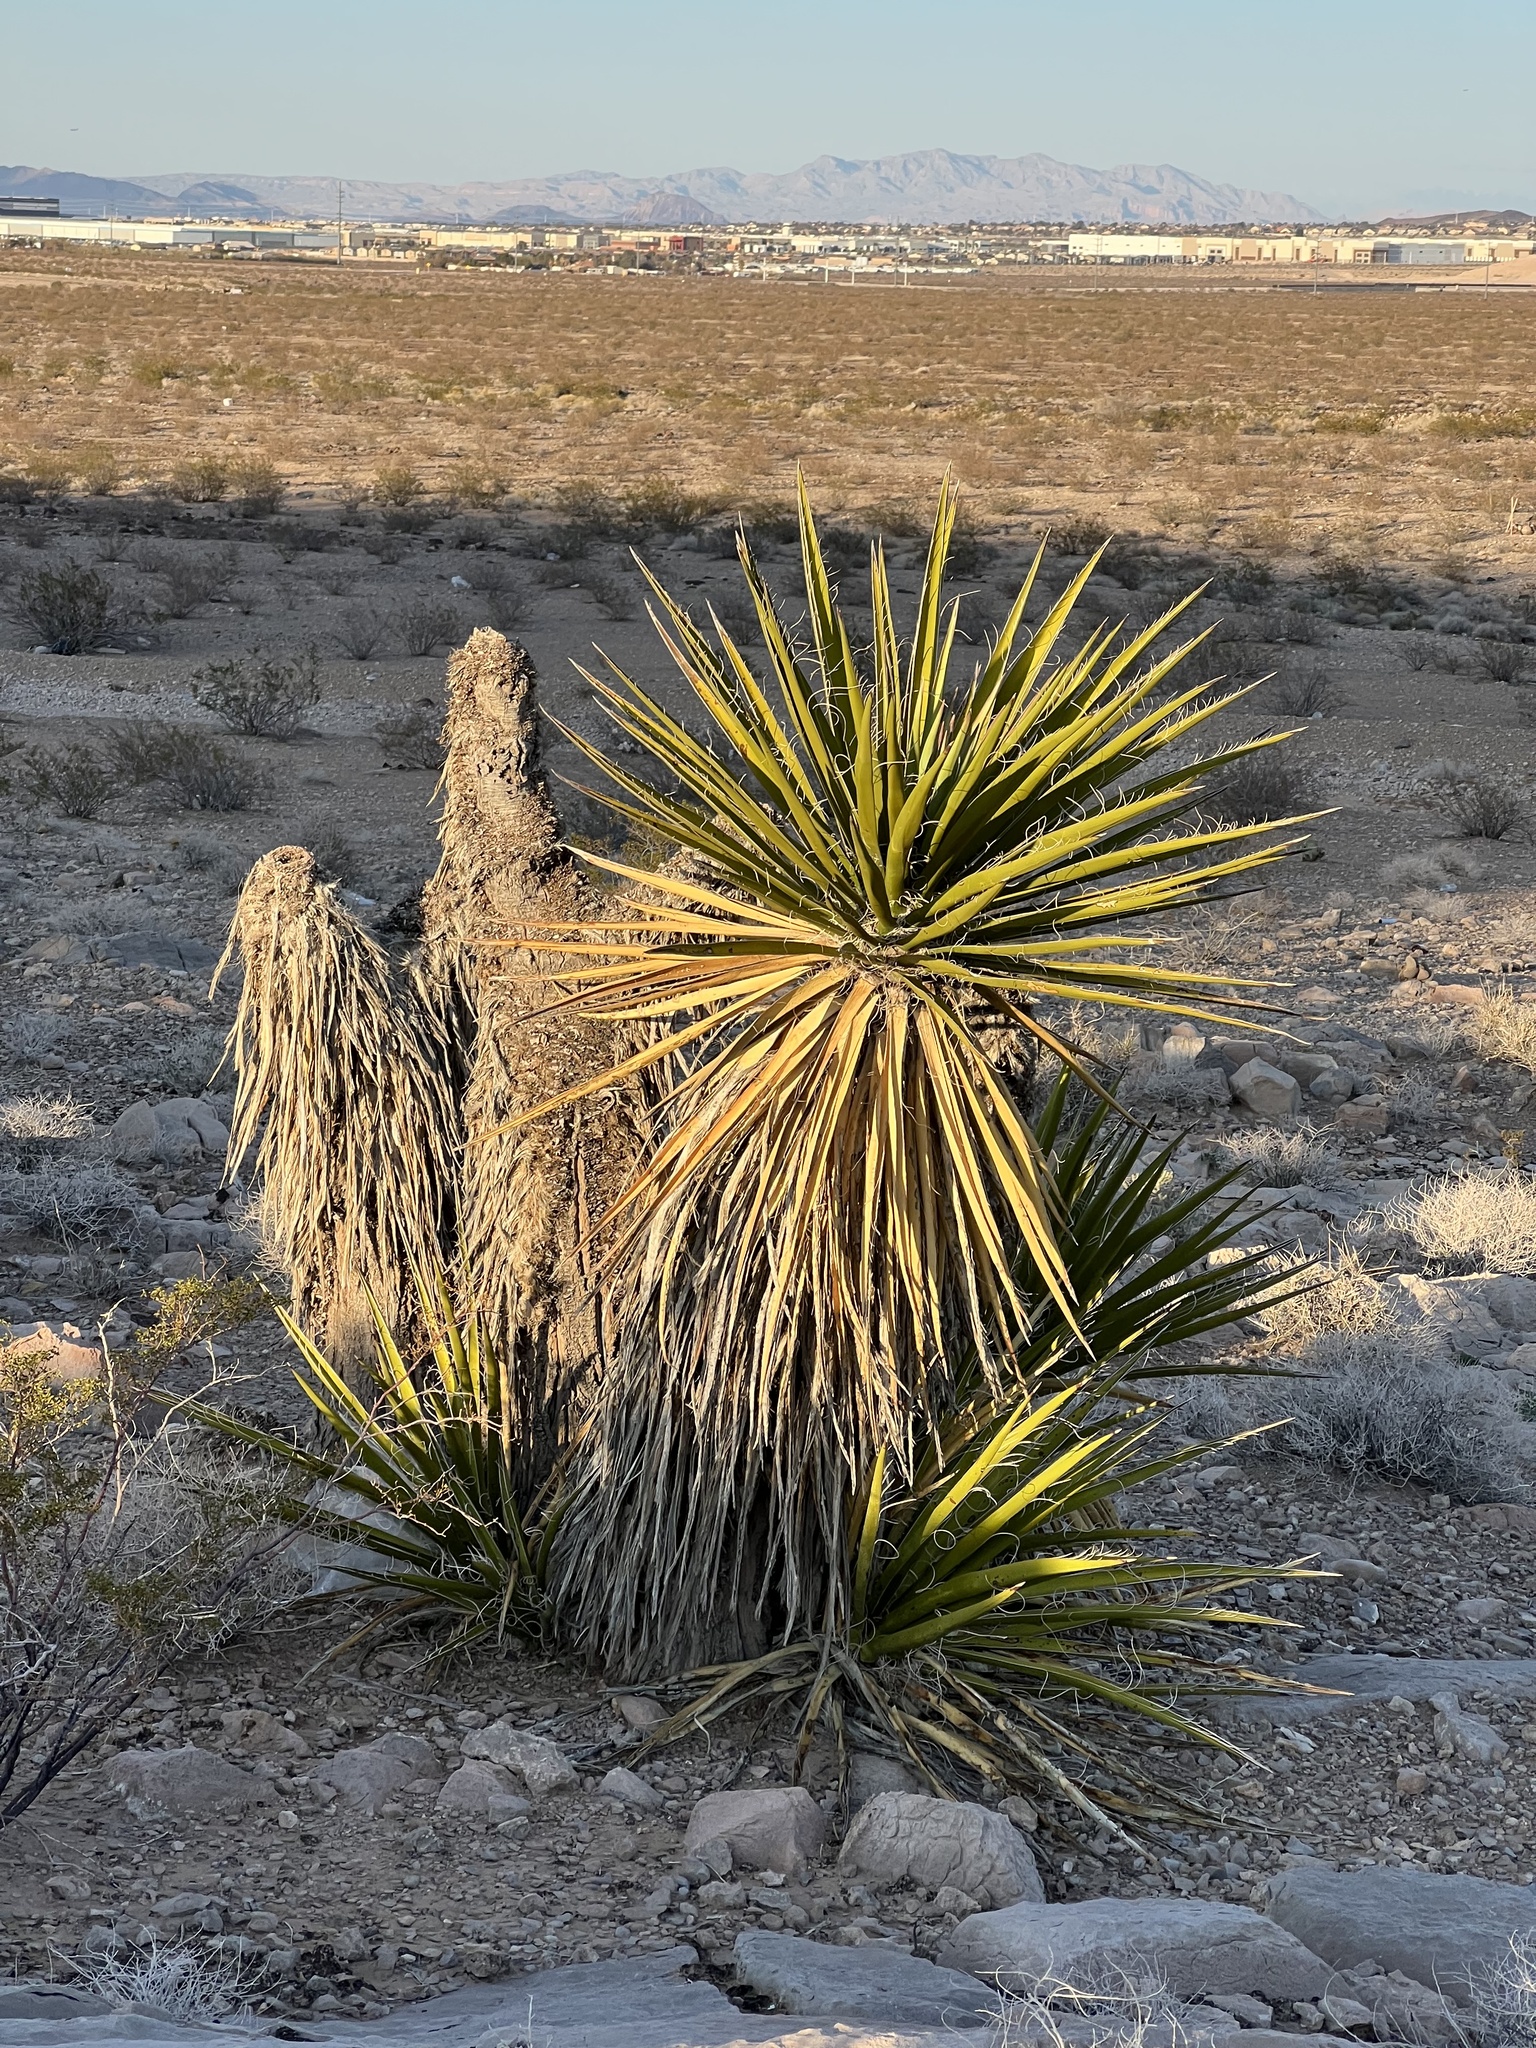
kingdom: Plantae
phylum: Tracheophyta
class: Liliopsida
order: Asparagales
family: Asparagaceae
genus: Yucca
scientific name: Yucca schidigera
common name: Mojave yucca
